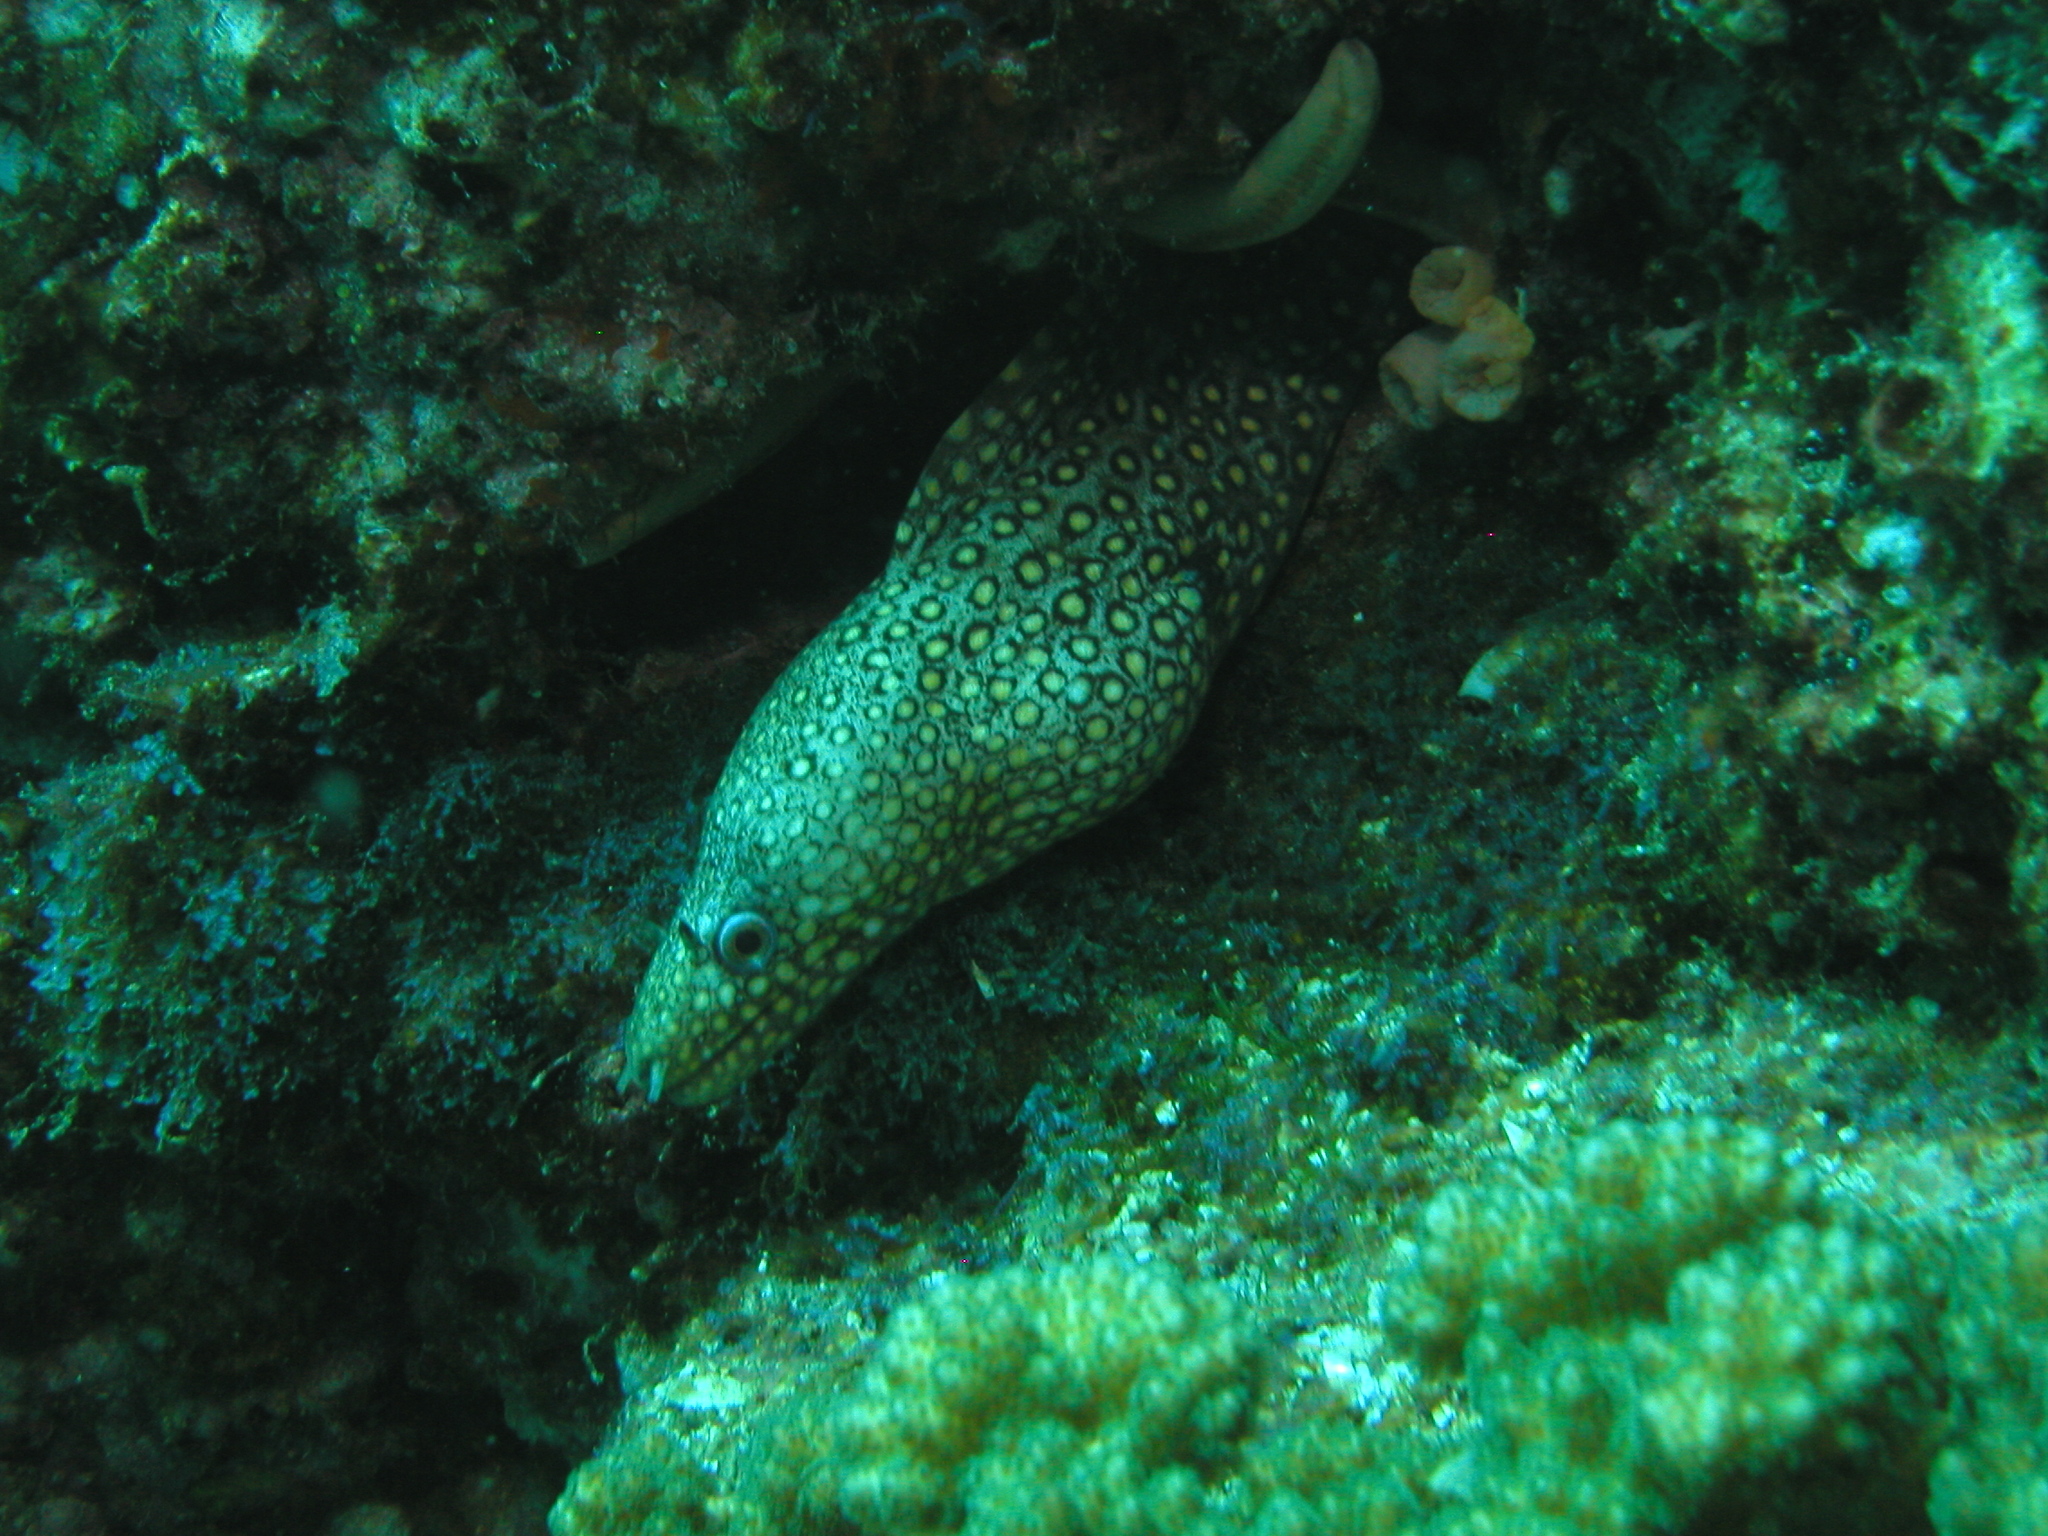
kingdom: Animalia
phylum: Chordata
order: Anguilliformes
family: Muraenidae
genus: Muraena
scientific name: Muraena lentiginosa
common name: Jewel moray
